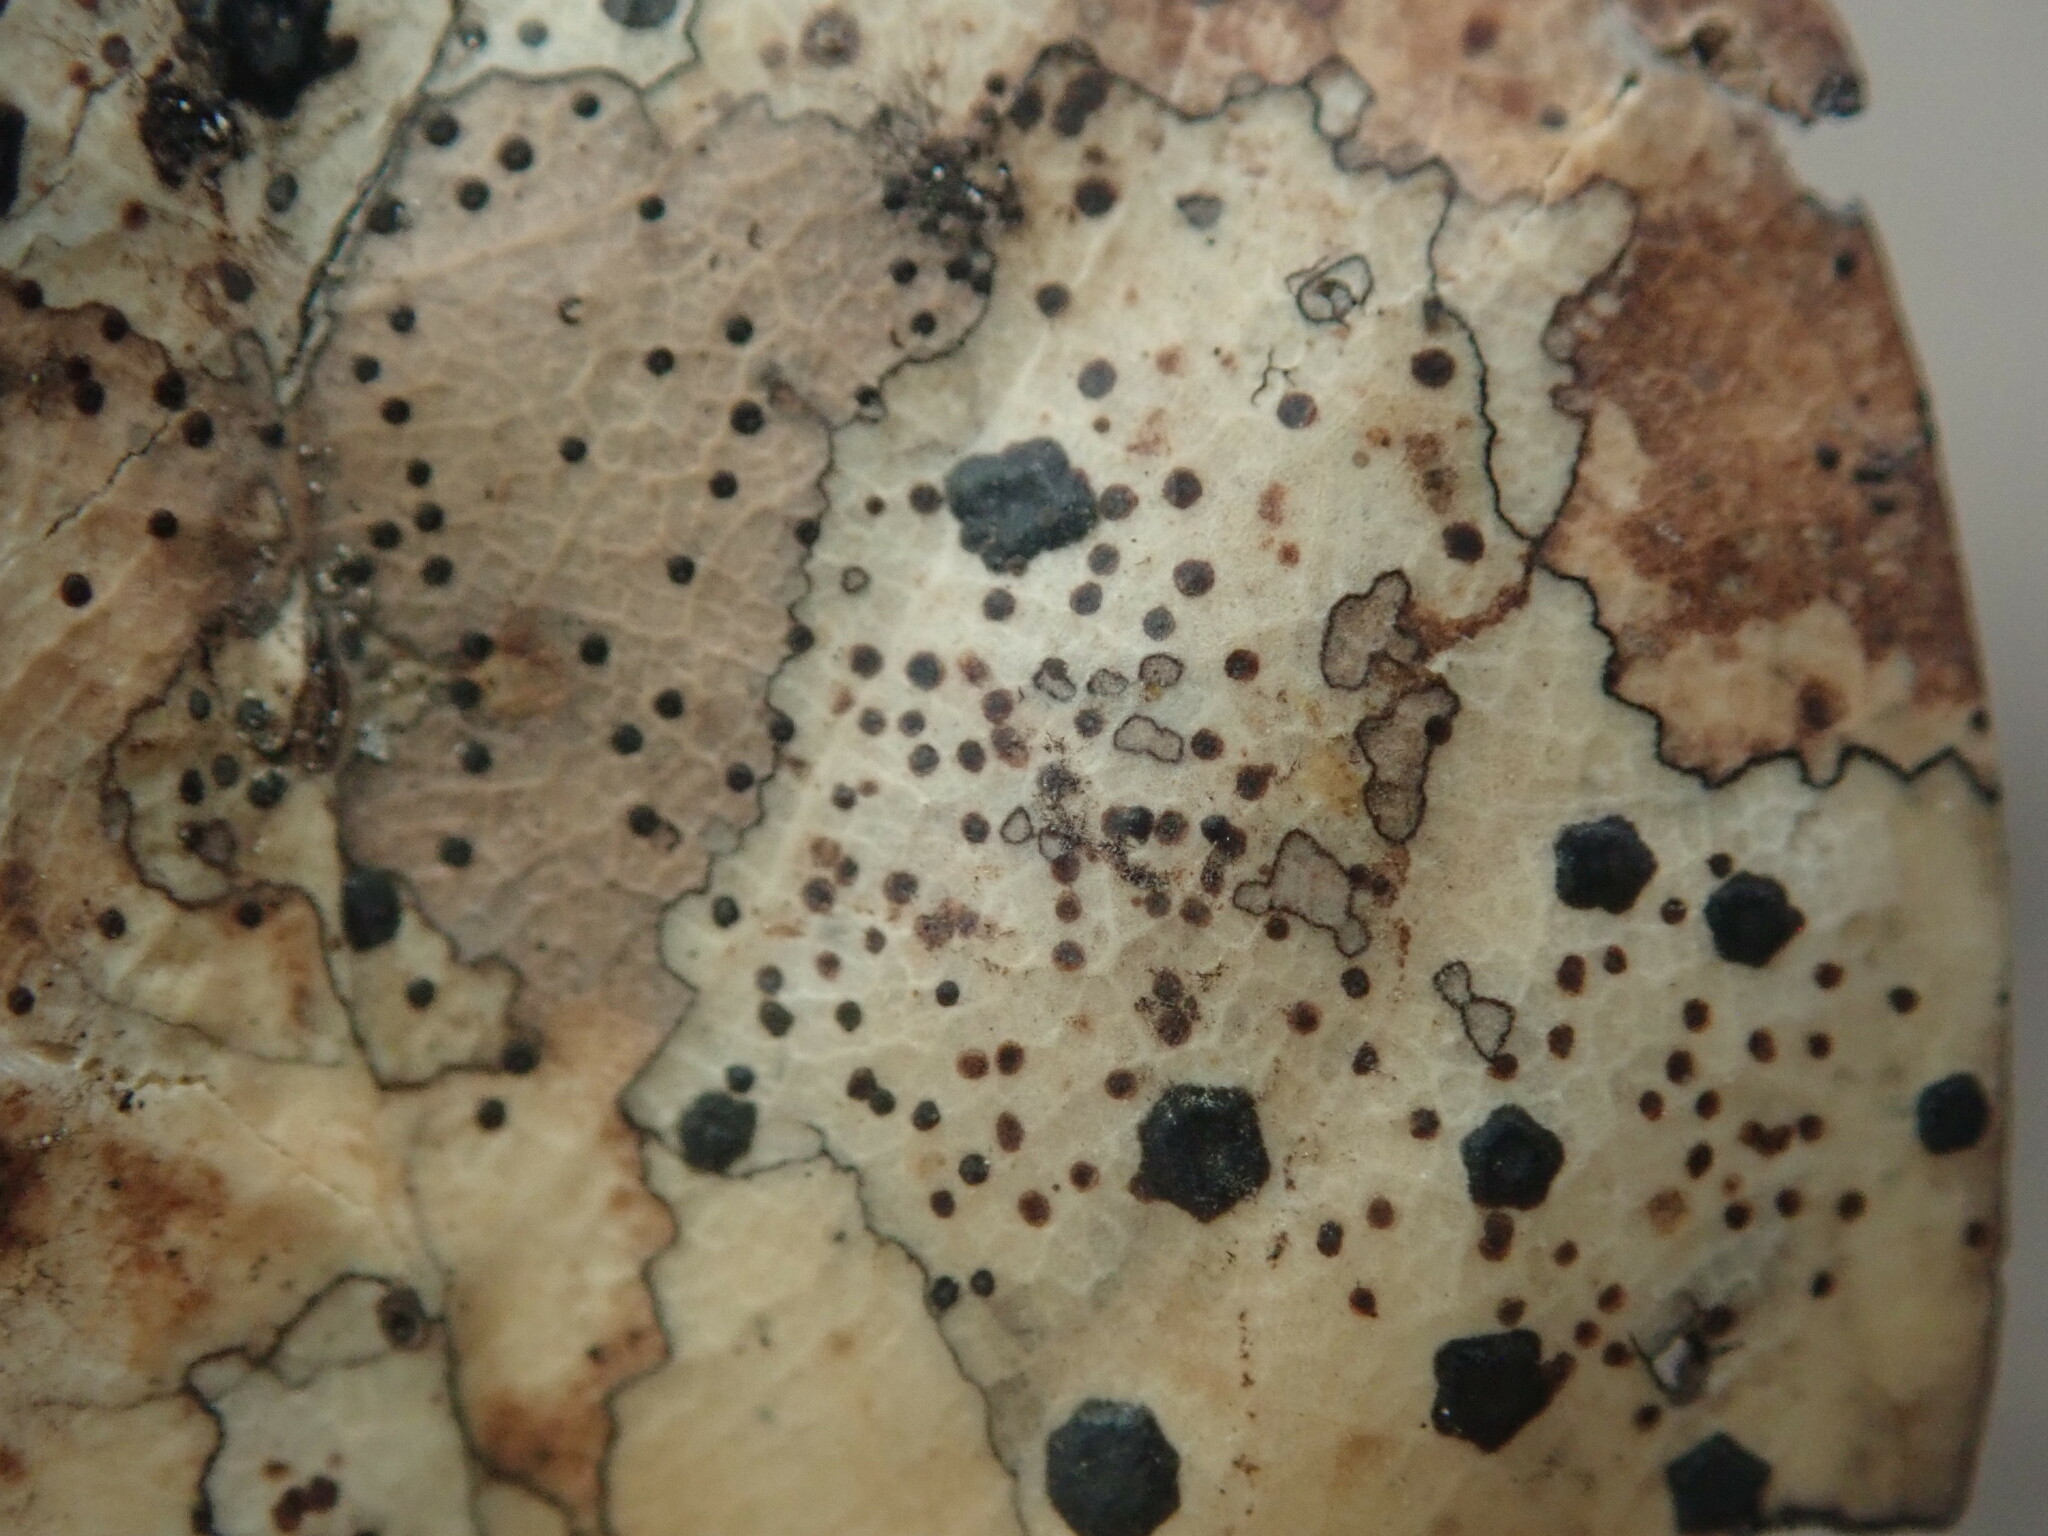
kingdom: Fungi
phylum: Ascomycota
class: Leotiomycetes
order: Rhytismatales
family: Rhytismataceae
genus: Coccomyces
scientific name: Coccomyces dentatus
